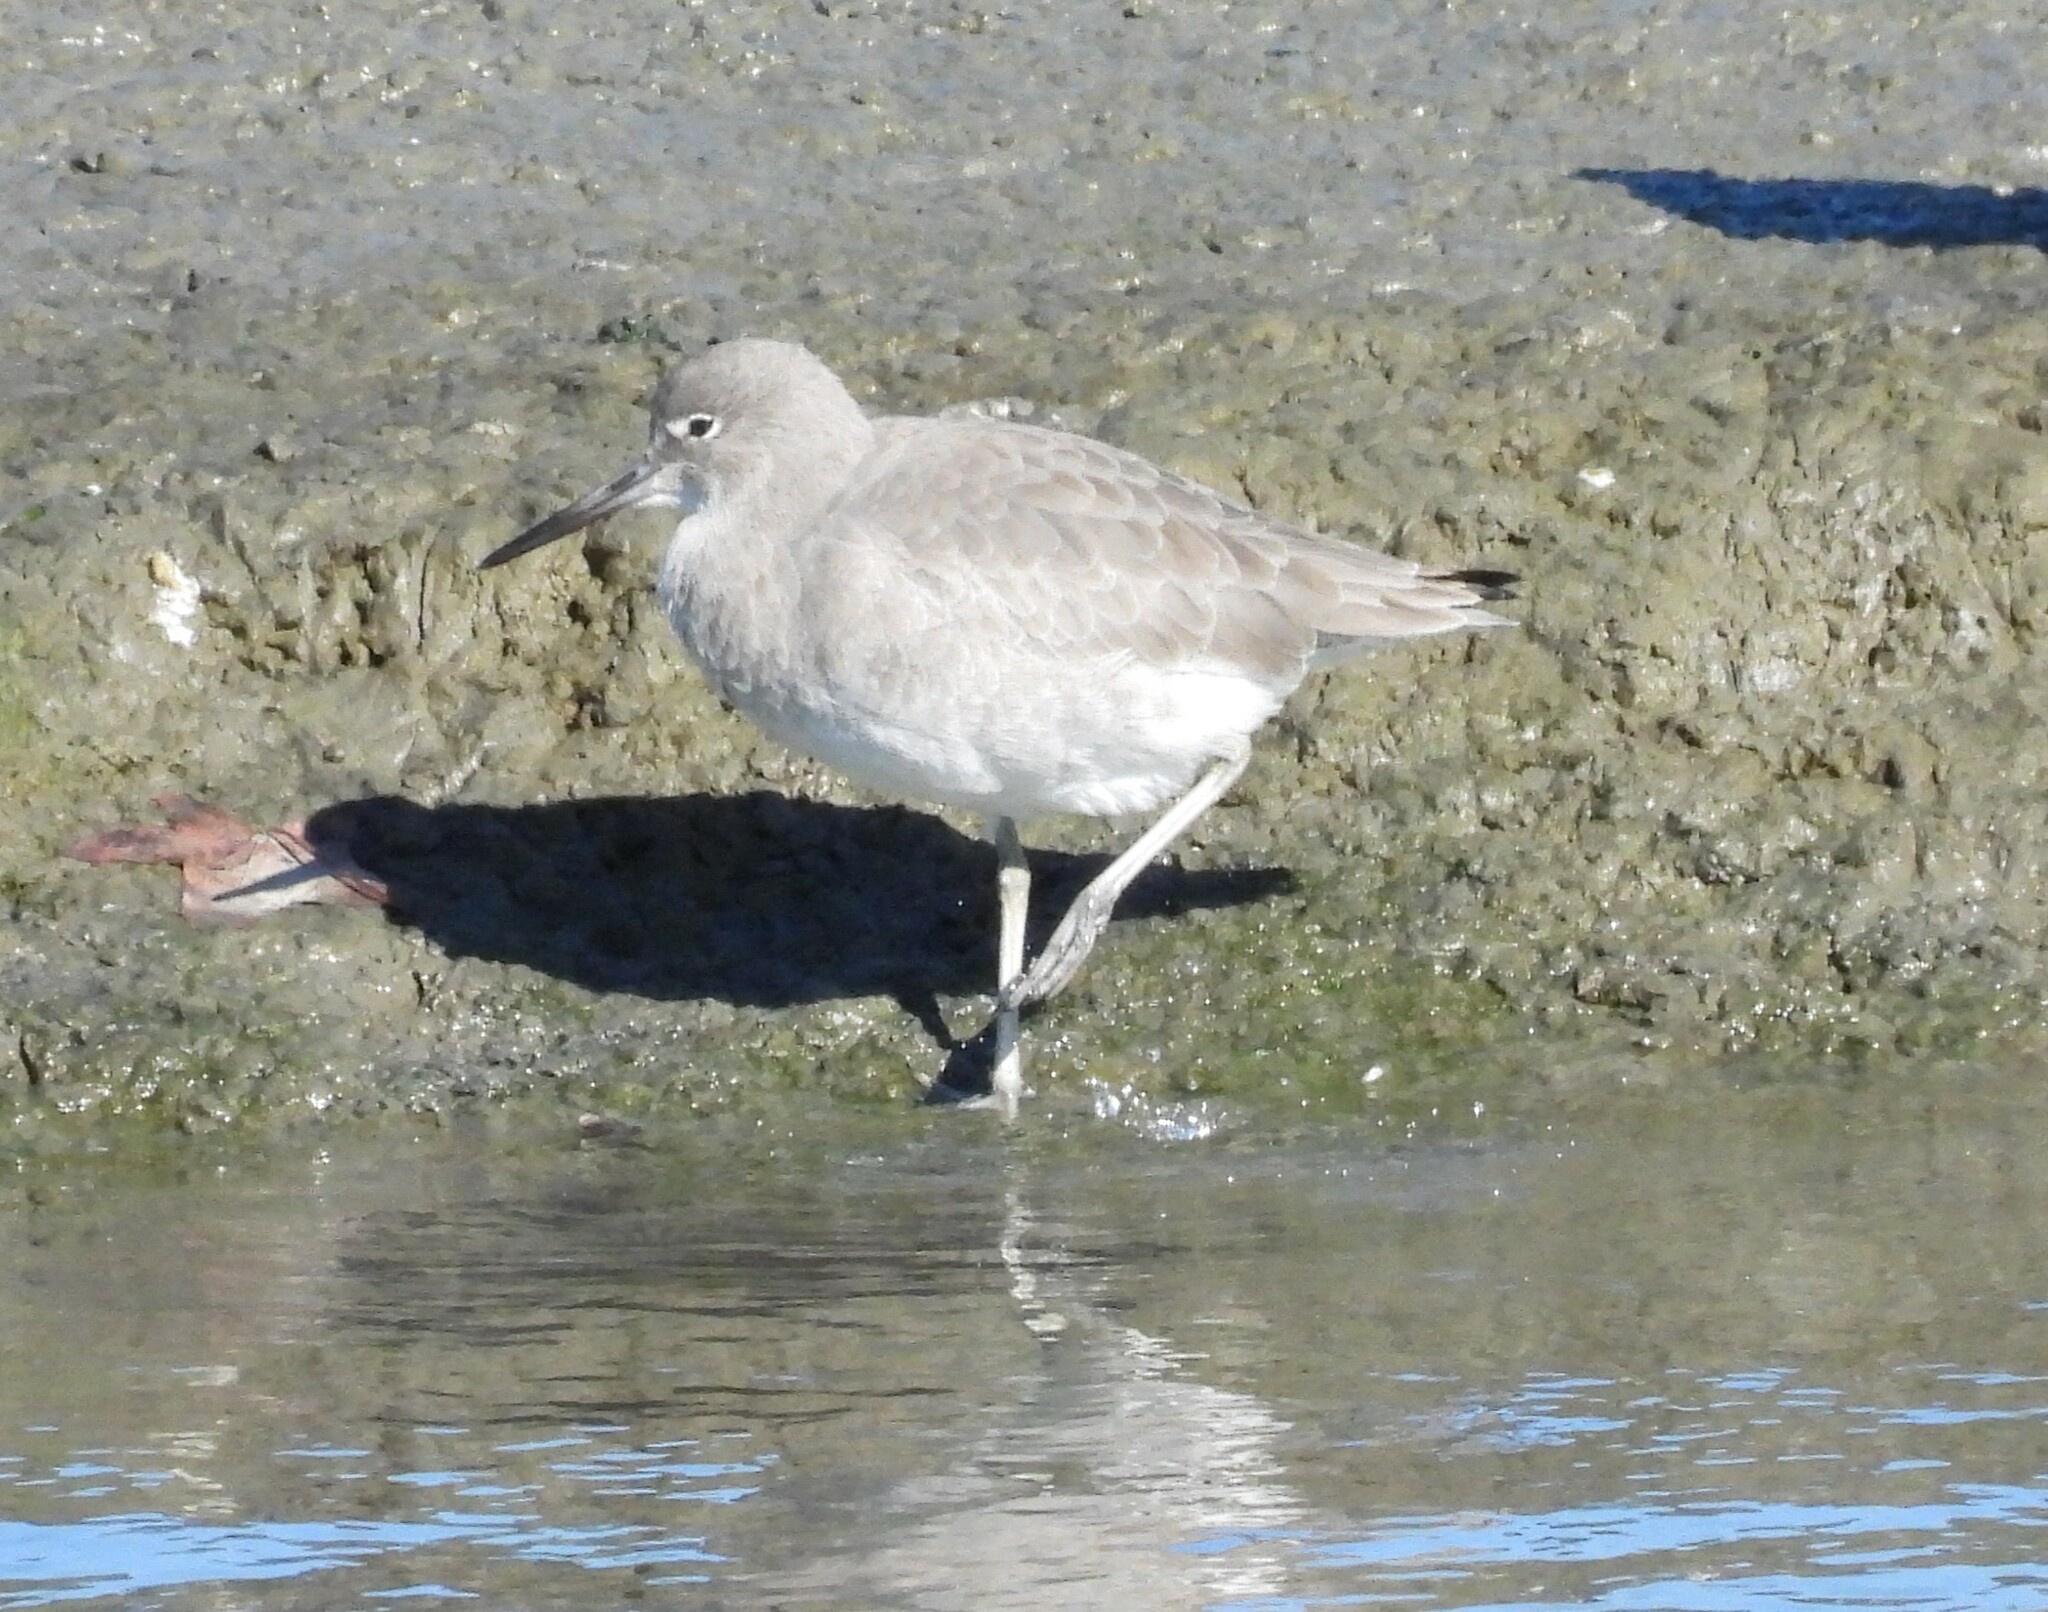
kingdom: Animalia
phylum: Chordata
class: Aves
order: Charadriiformes
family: Scolopacidae
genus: Tringa
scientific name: Tringa semipalmata
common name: Willet
